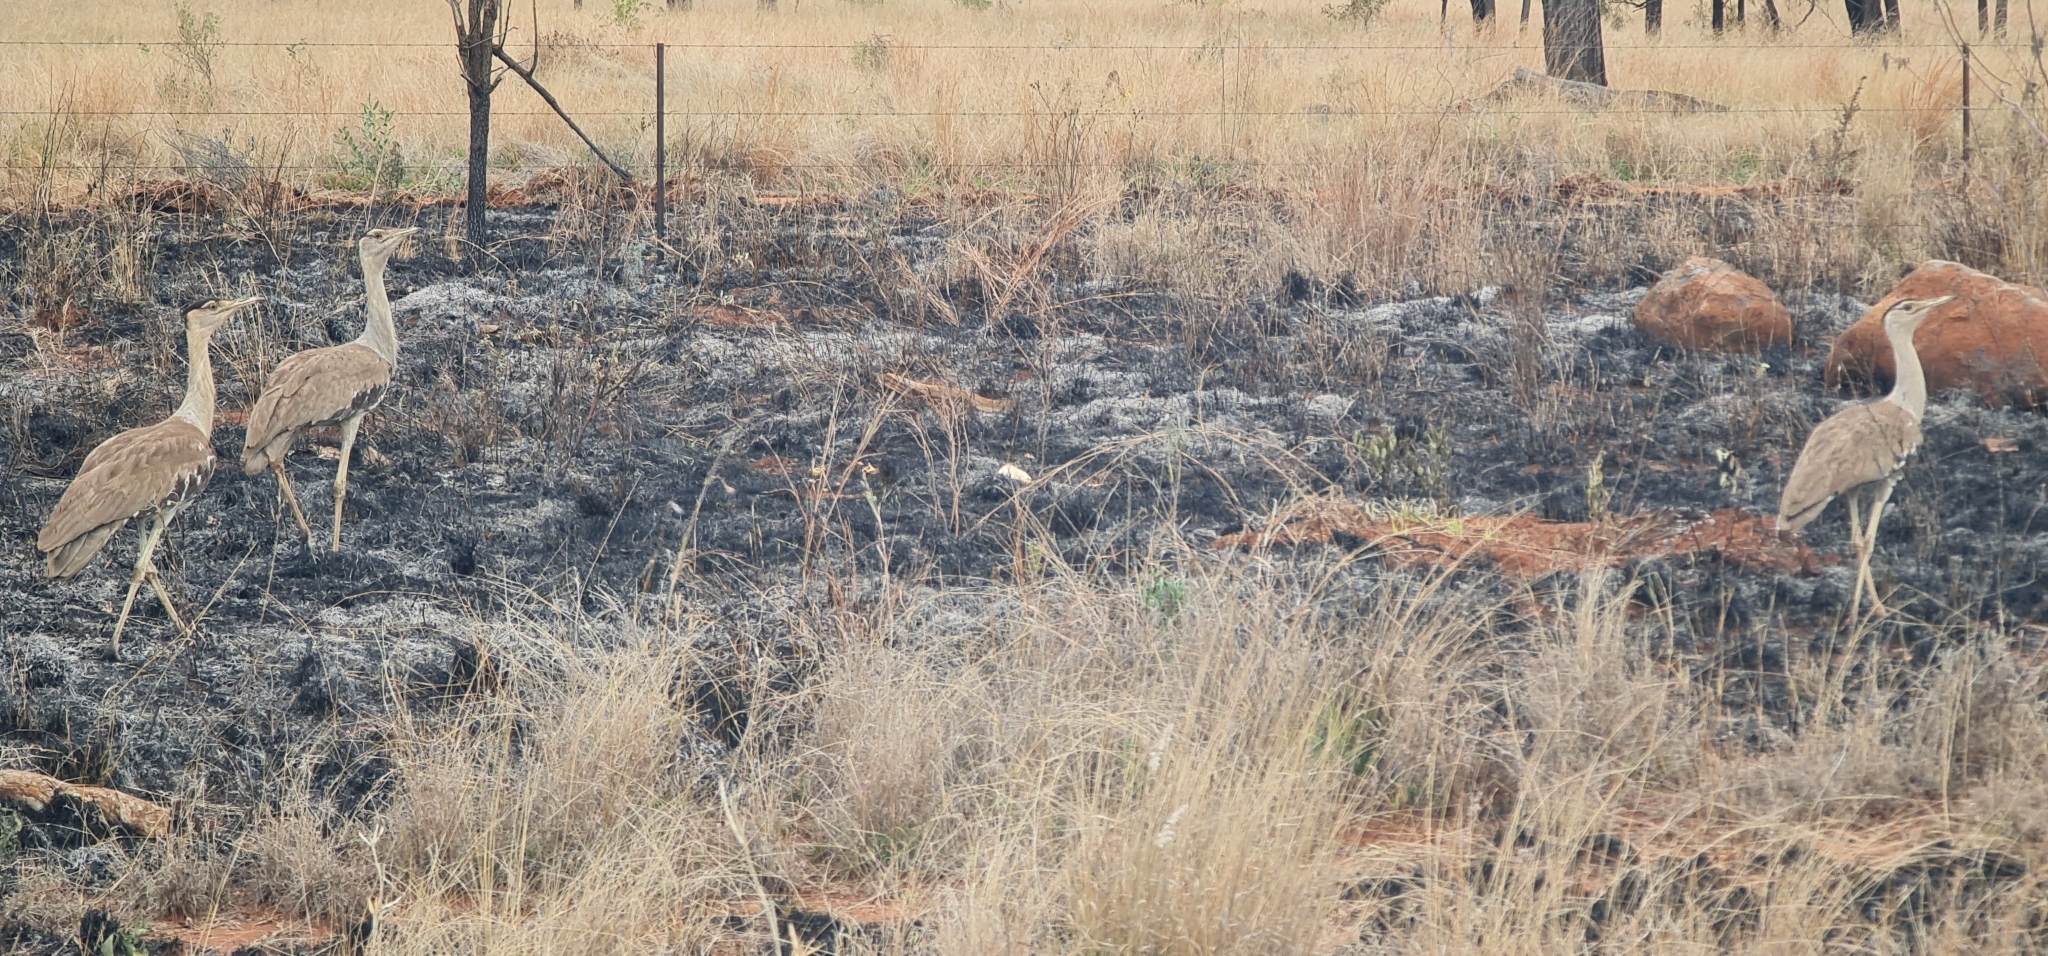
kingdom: Animalia
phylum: Chordata
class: Aves
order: Otidiformes
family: Otididae
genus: Ardeotis
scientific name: Ardeotis australis
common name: Australian bustard
